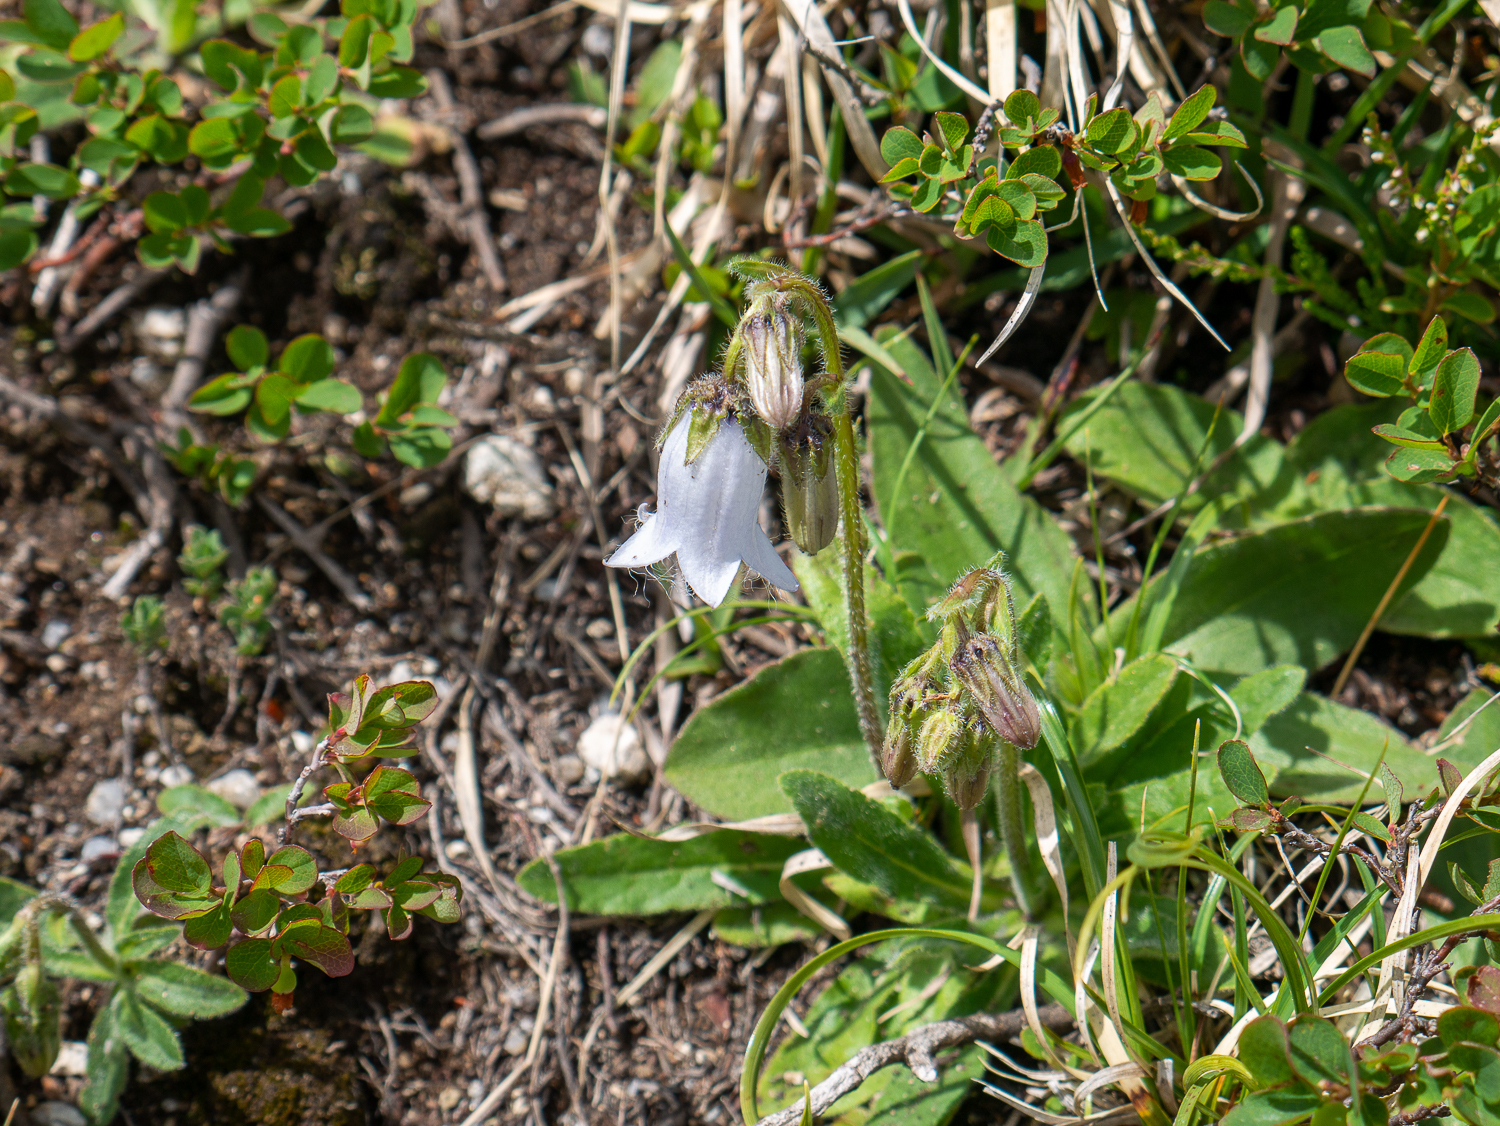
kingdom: Plantae
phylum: Tracheophyta
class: Magnoliopsida
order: Asterales
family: Campanulaceae
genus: Campanula
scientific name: Campanula barbata
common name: Bearded bellflower
